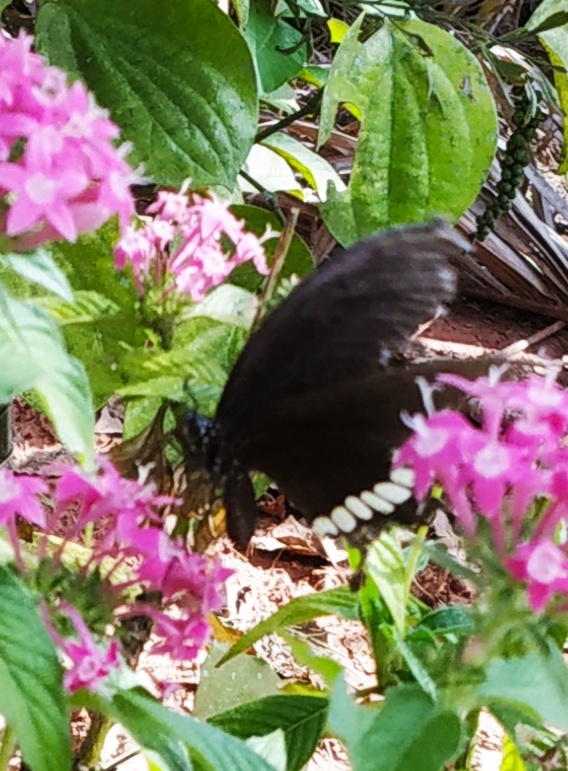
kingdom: Animalia
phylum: Arthropoda
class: Insecta
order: Lepidoptera
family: Papilionidae
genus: Papilio
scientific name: Papilio polytes
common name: Common mormon
